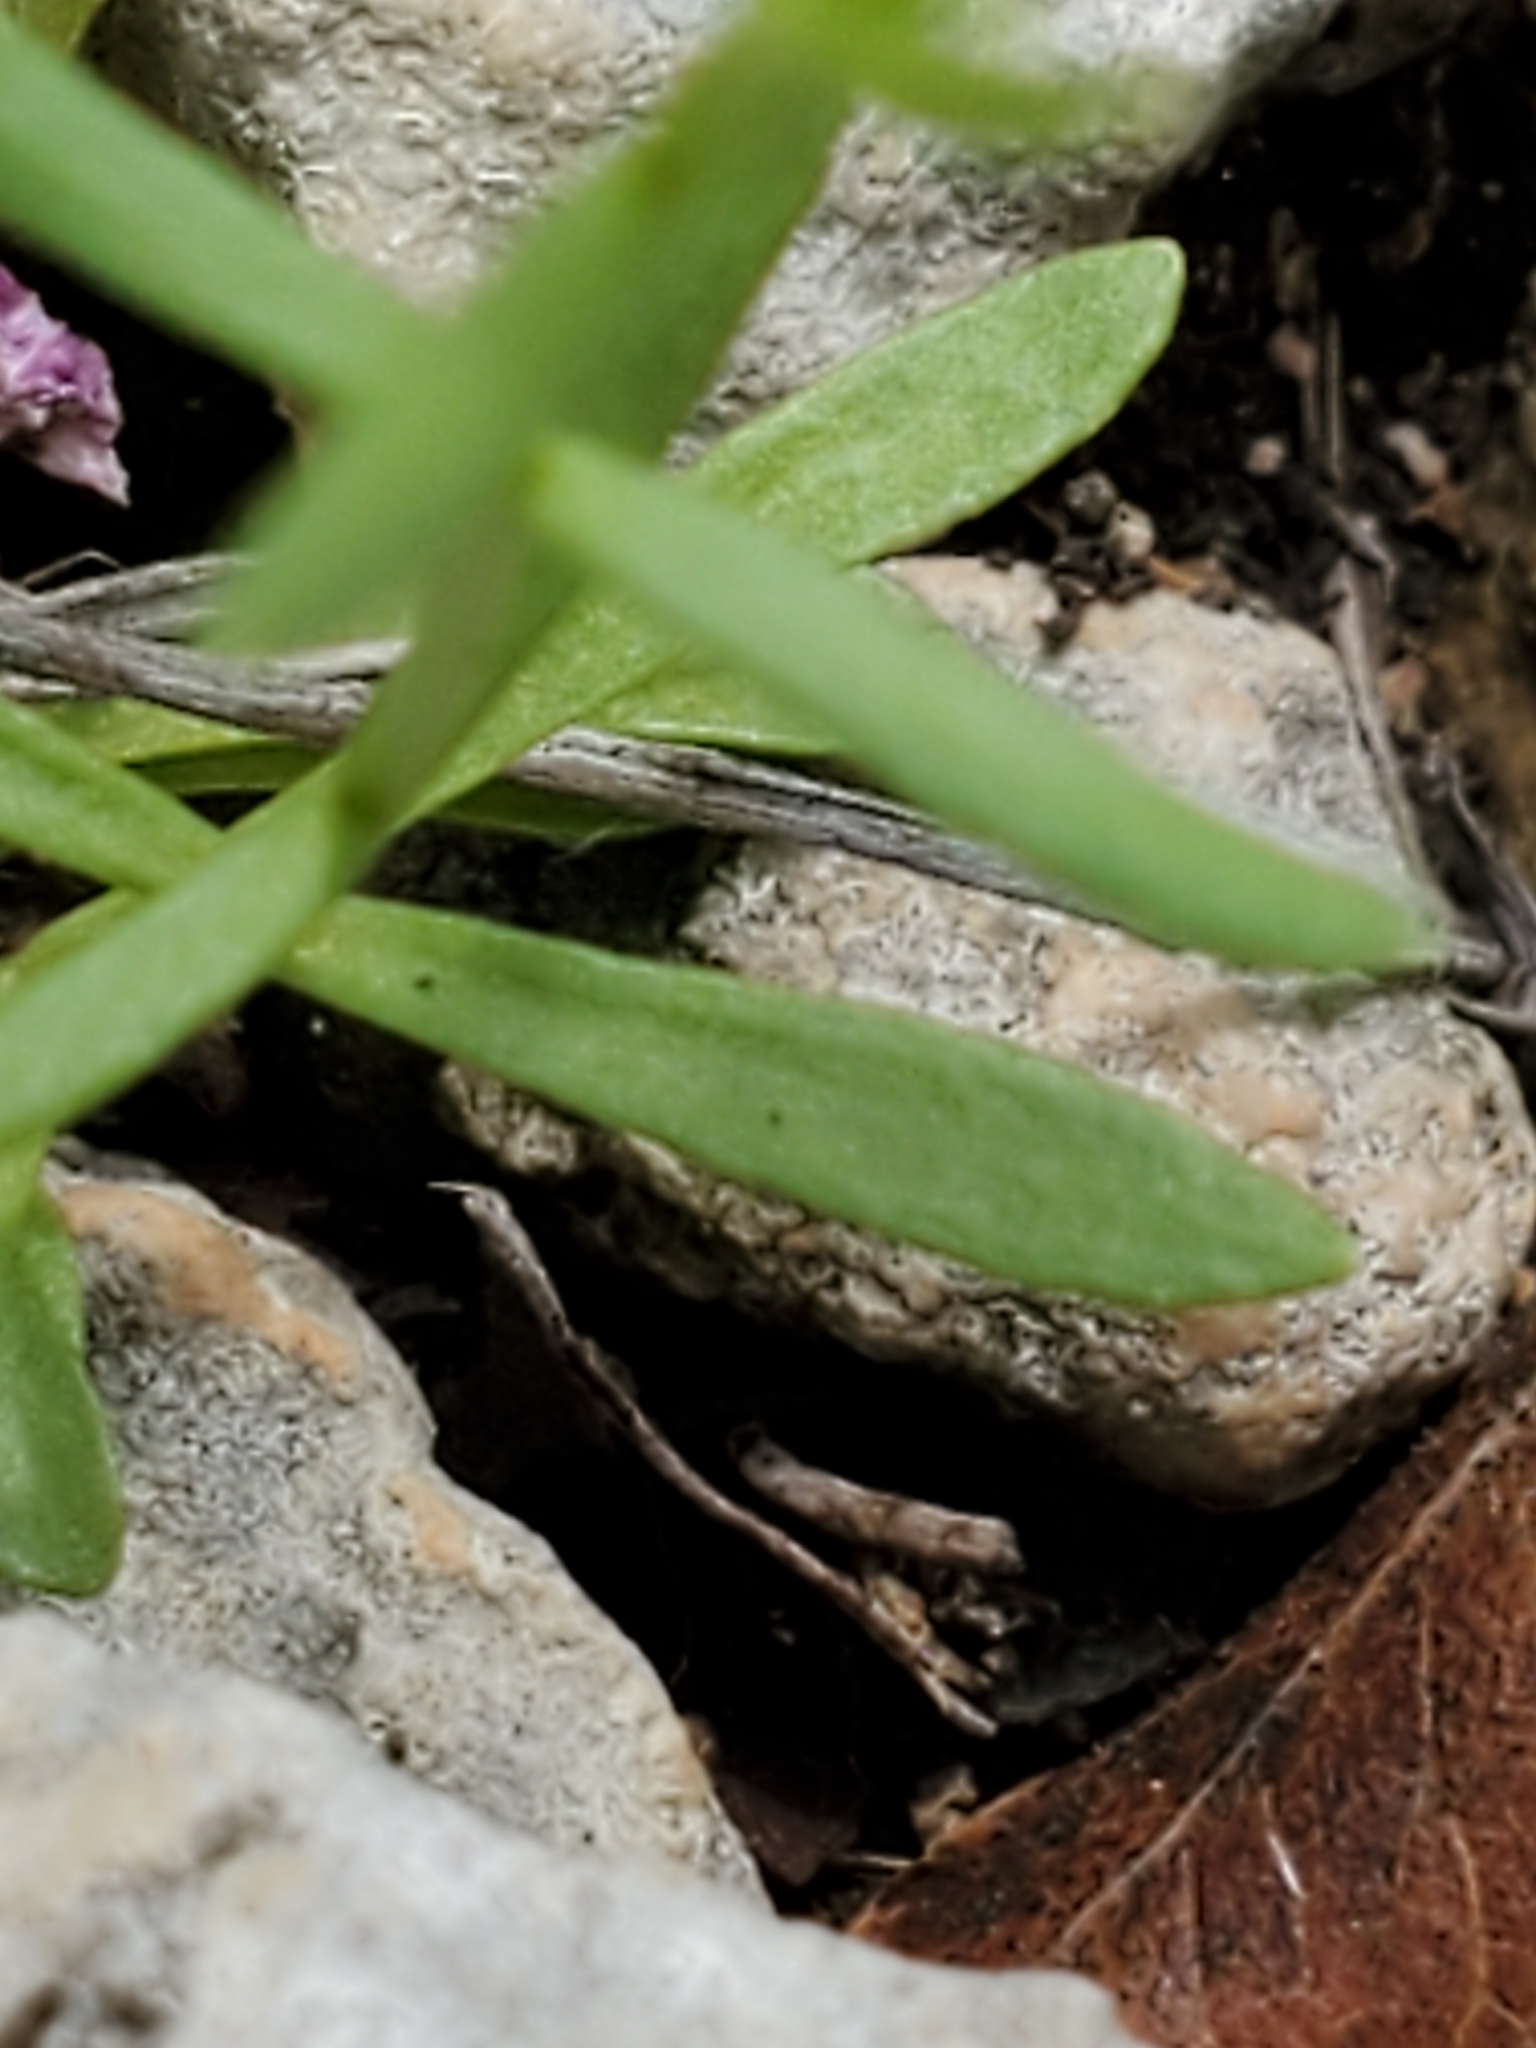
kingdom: Plantae
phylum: Tracheophyta
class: Magnoliopsida
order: Asterales
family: Asteraceae
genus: Aphanostephus
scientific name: Aphanostephus ramosissimus
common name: Plains lazy daisy
